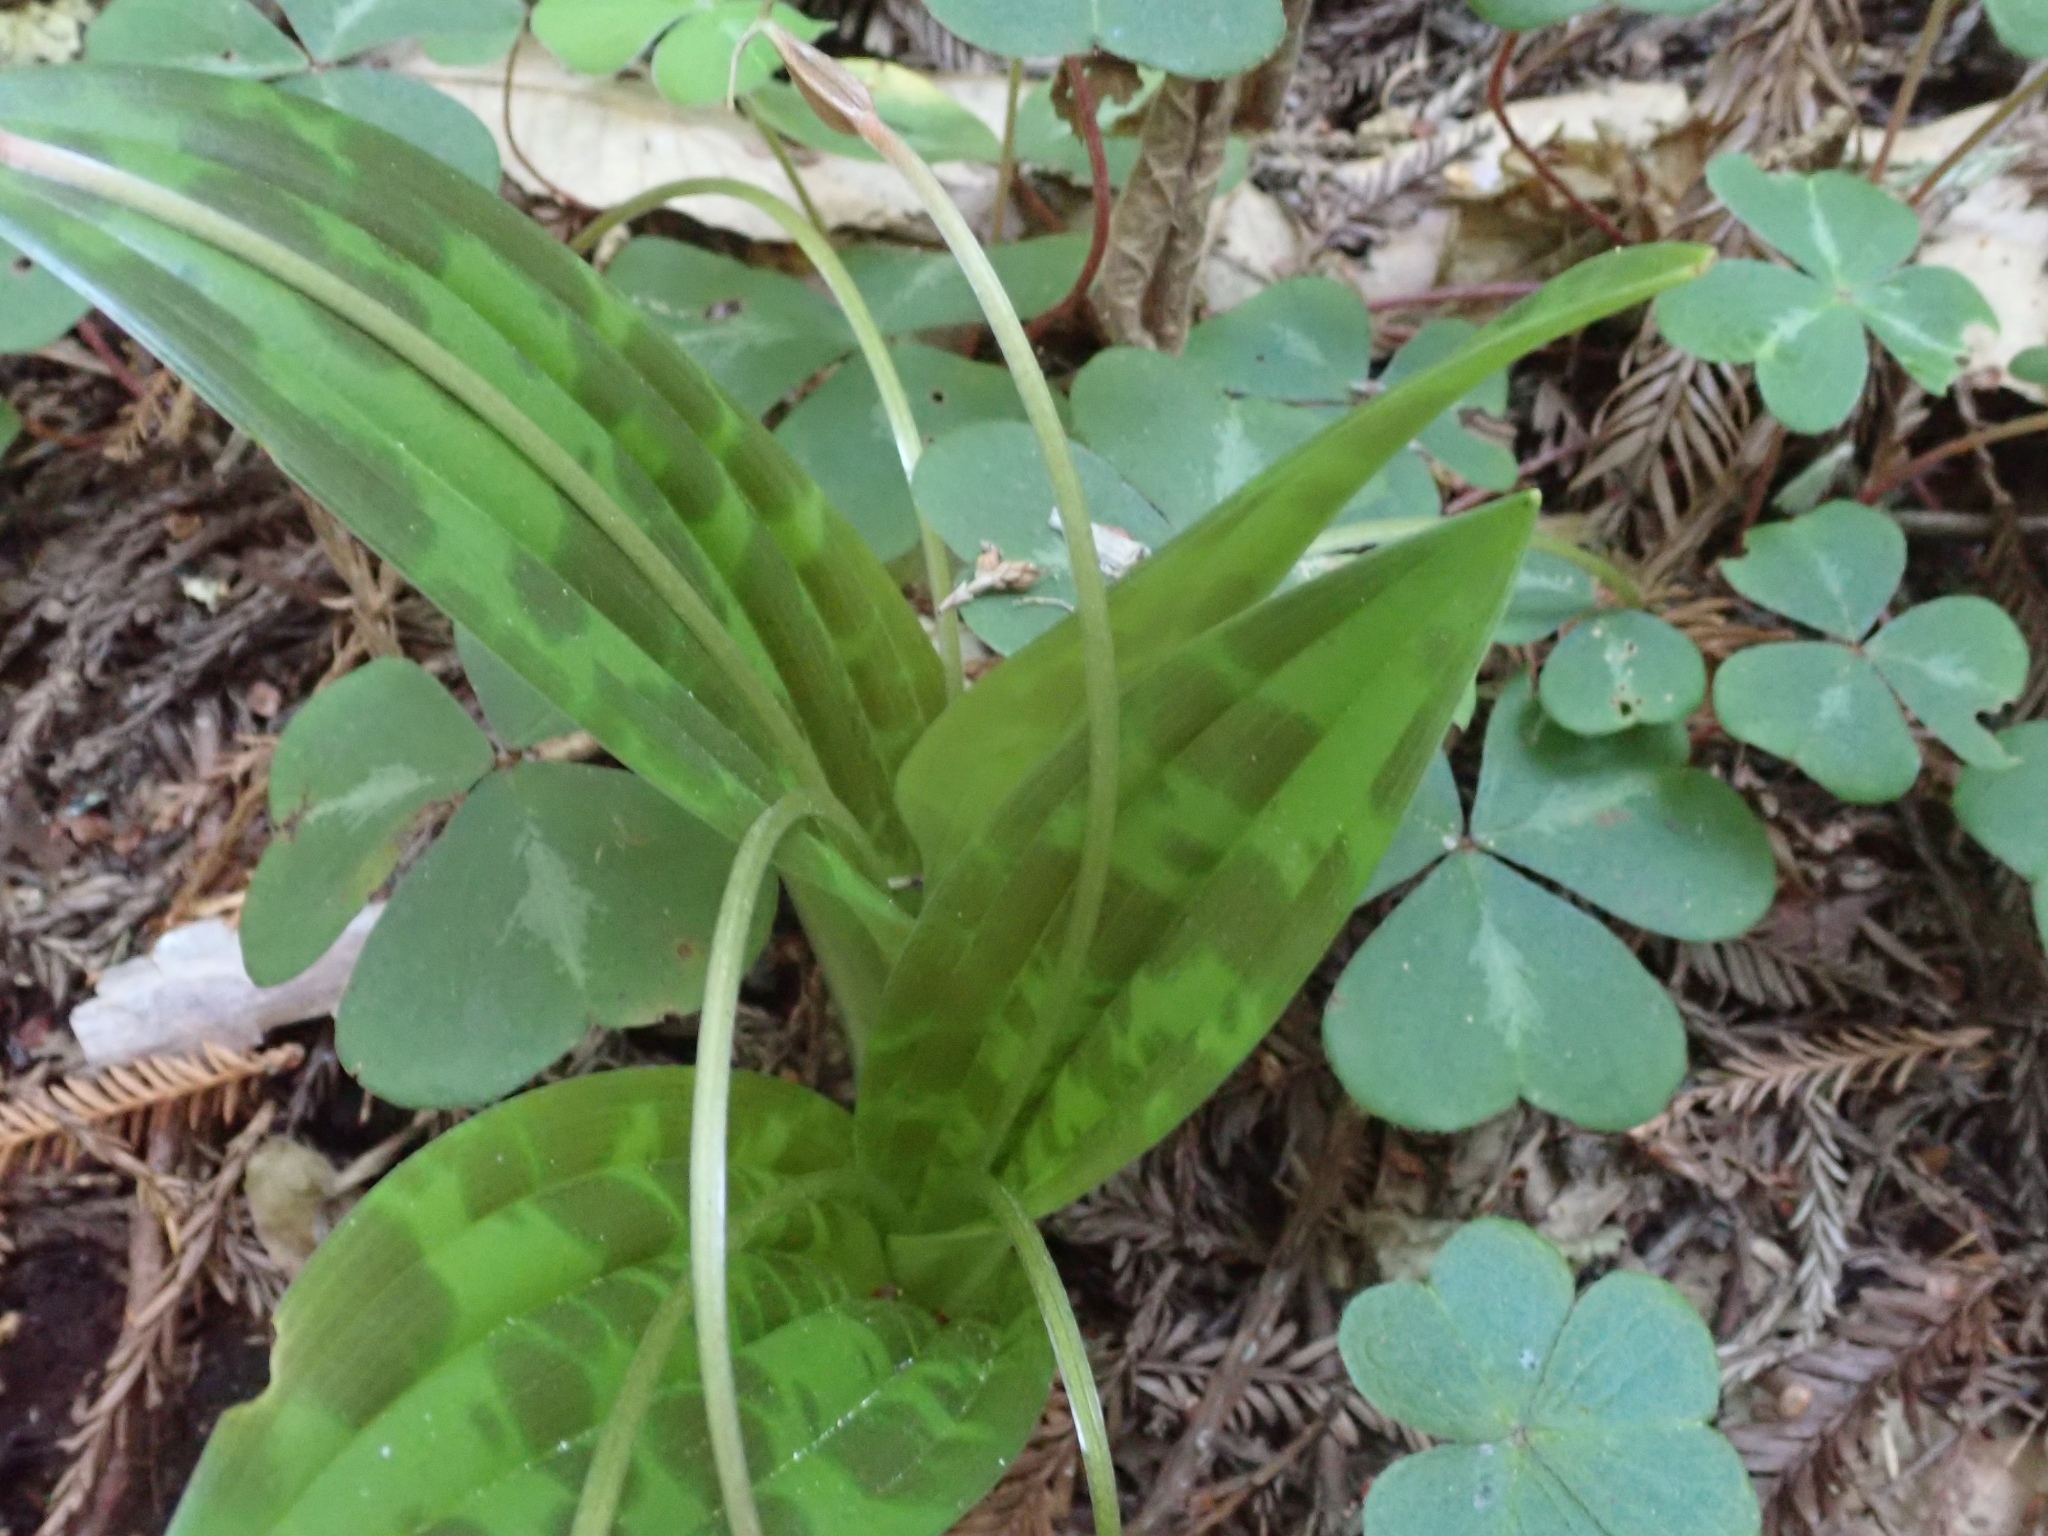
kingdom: Plantae
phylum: Tracheophyta
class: Liliopsida
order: Liliales
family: Liliaceae
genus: Scoliopus
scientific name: Scoliopus bigelovii
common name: Foetid adder's-tongue
